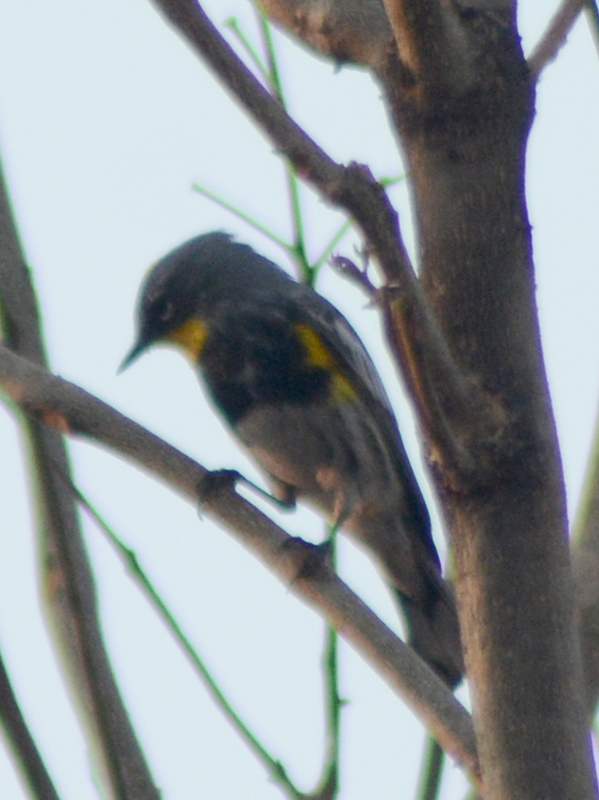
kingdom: Animalia
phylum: Chordata
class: Aves
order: Passeriformes
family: Parulidae
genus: Setophaga
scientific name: Setophaga coronata
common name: Myrtle warbler
